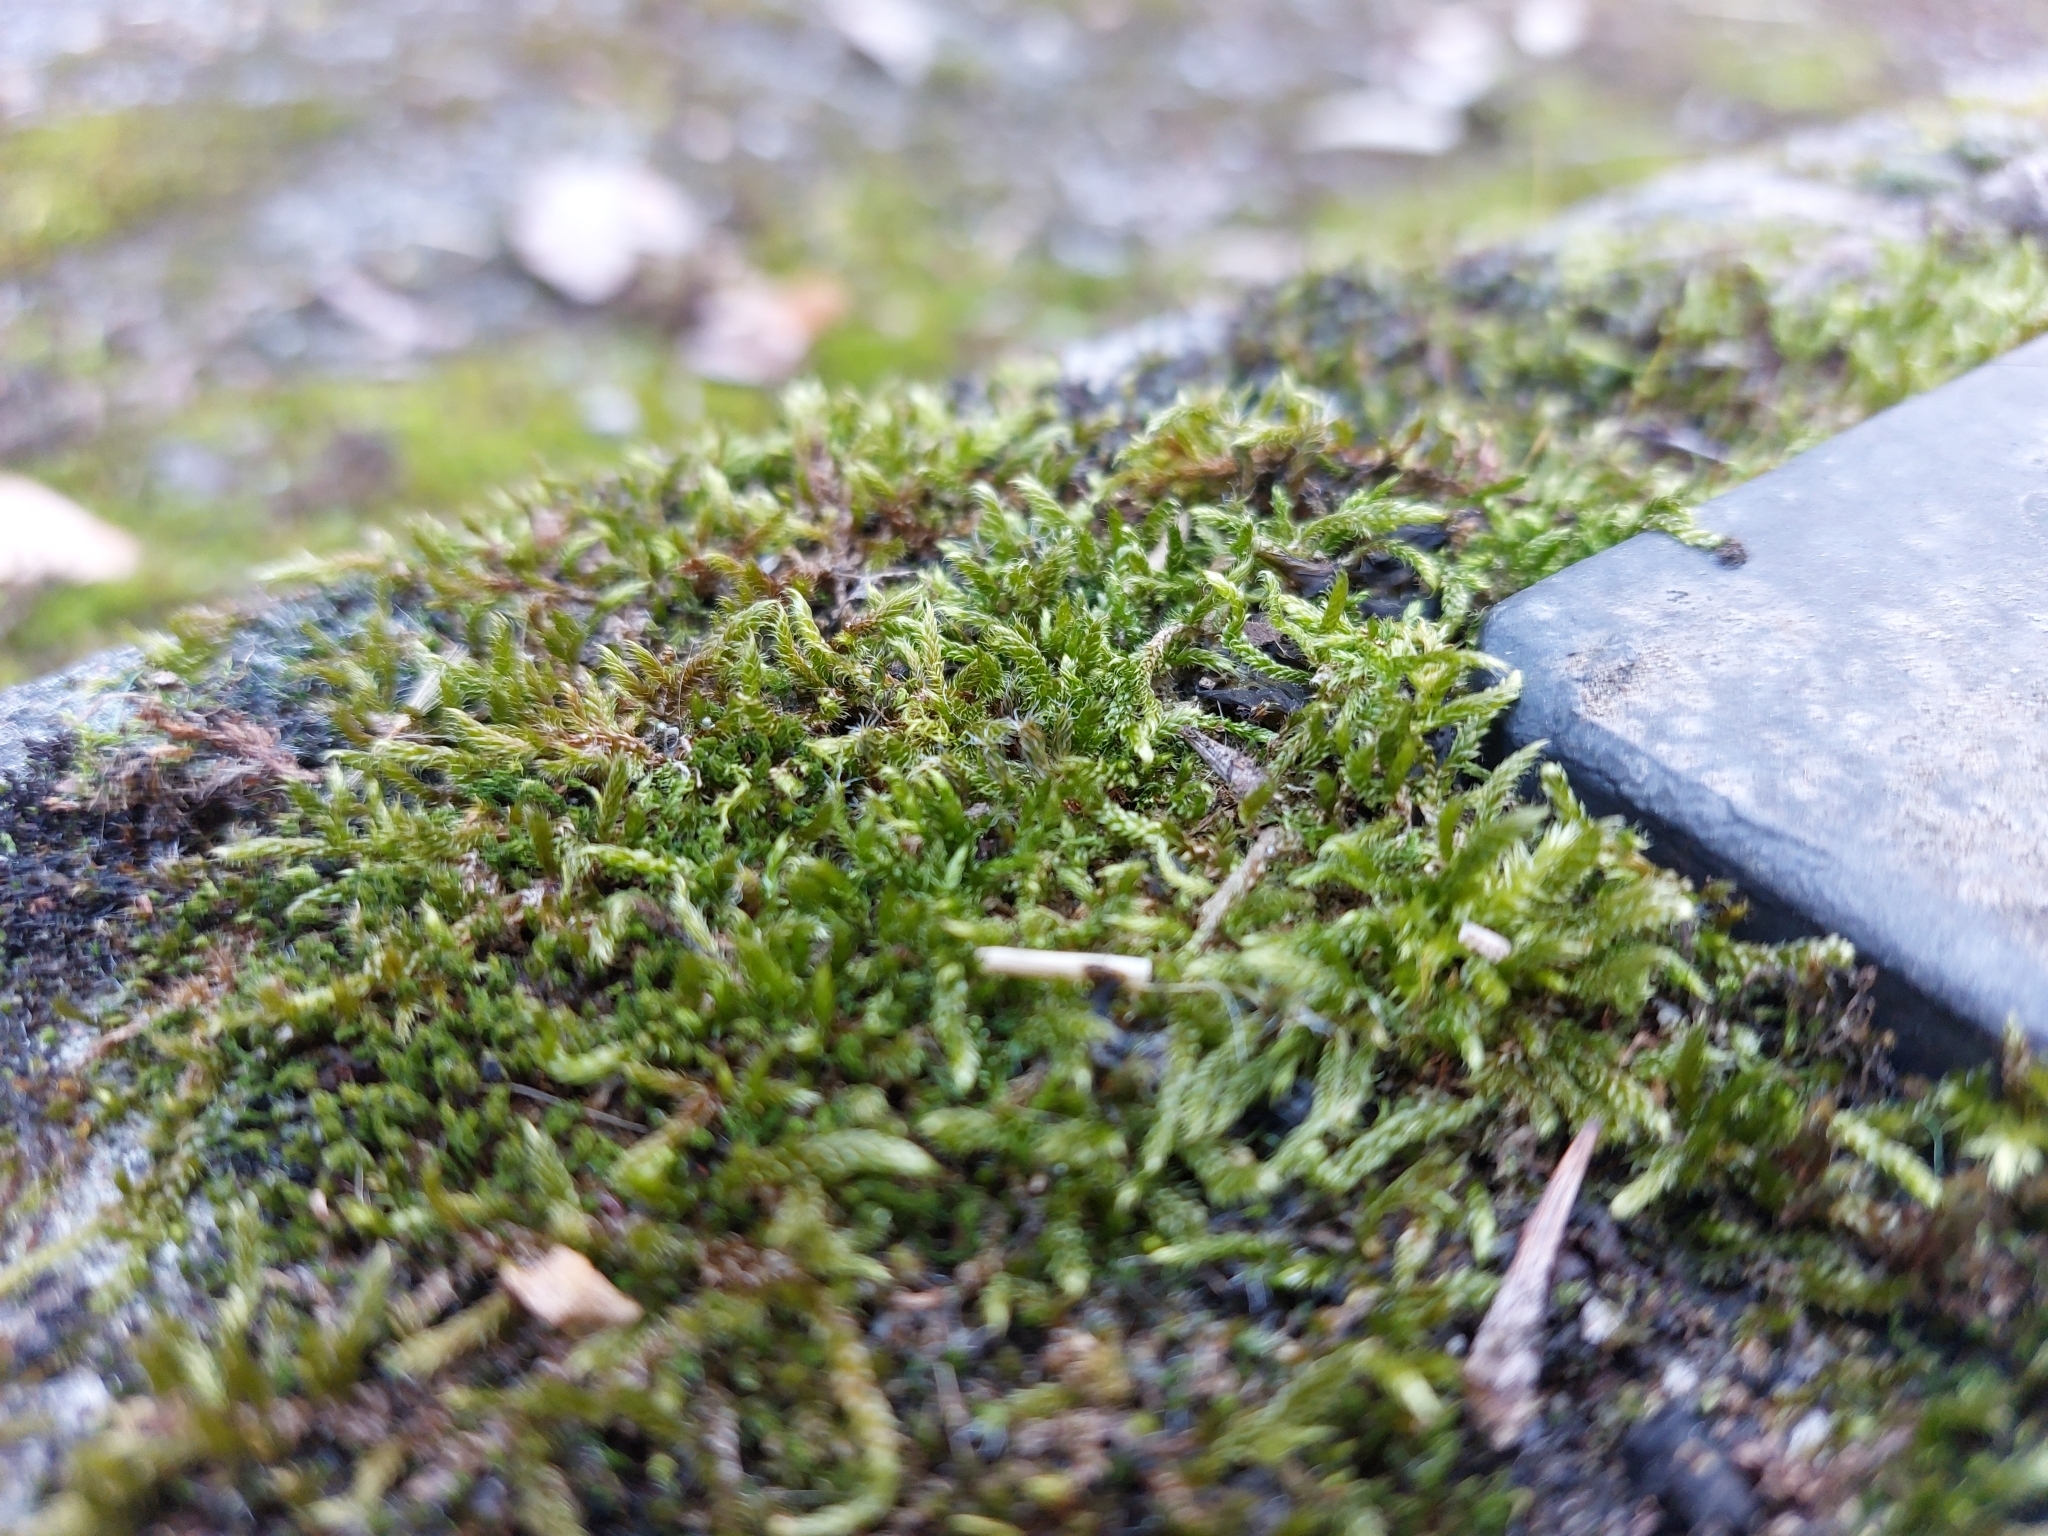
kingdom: Plantae
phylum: Bryophyta
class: Bryopsida
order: Hypnales
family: Hypnaceae
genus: Hypnum
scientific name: Hypnum cupressiforme
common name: Cypress-leaved plait-moss
